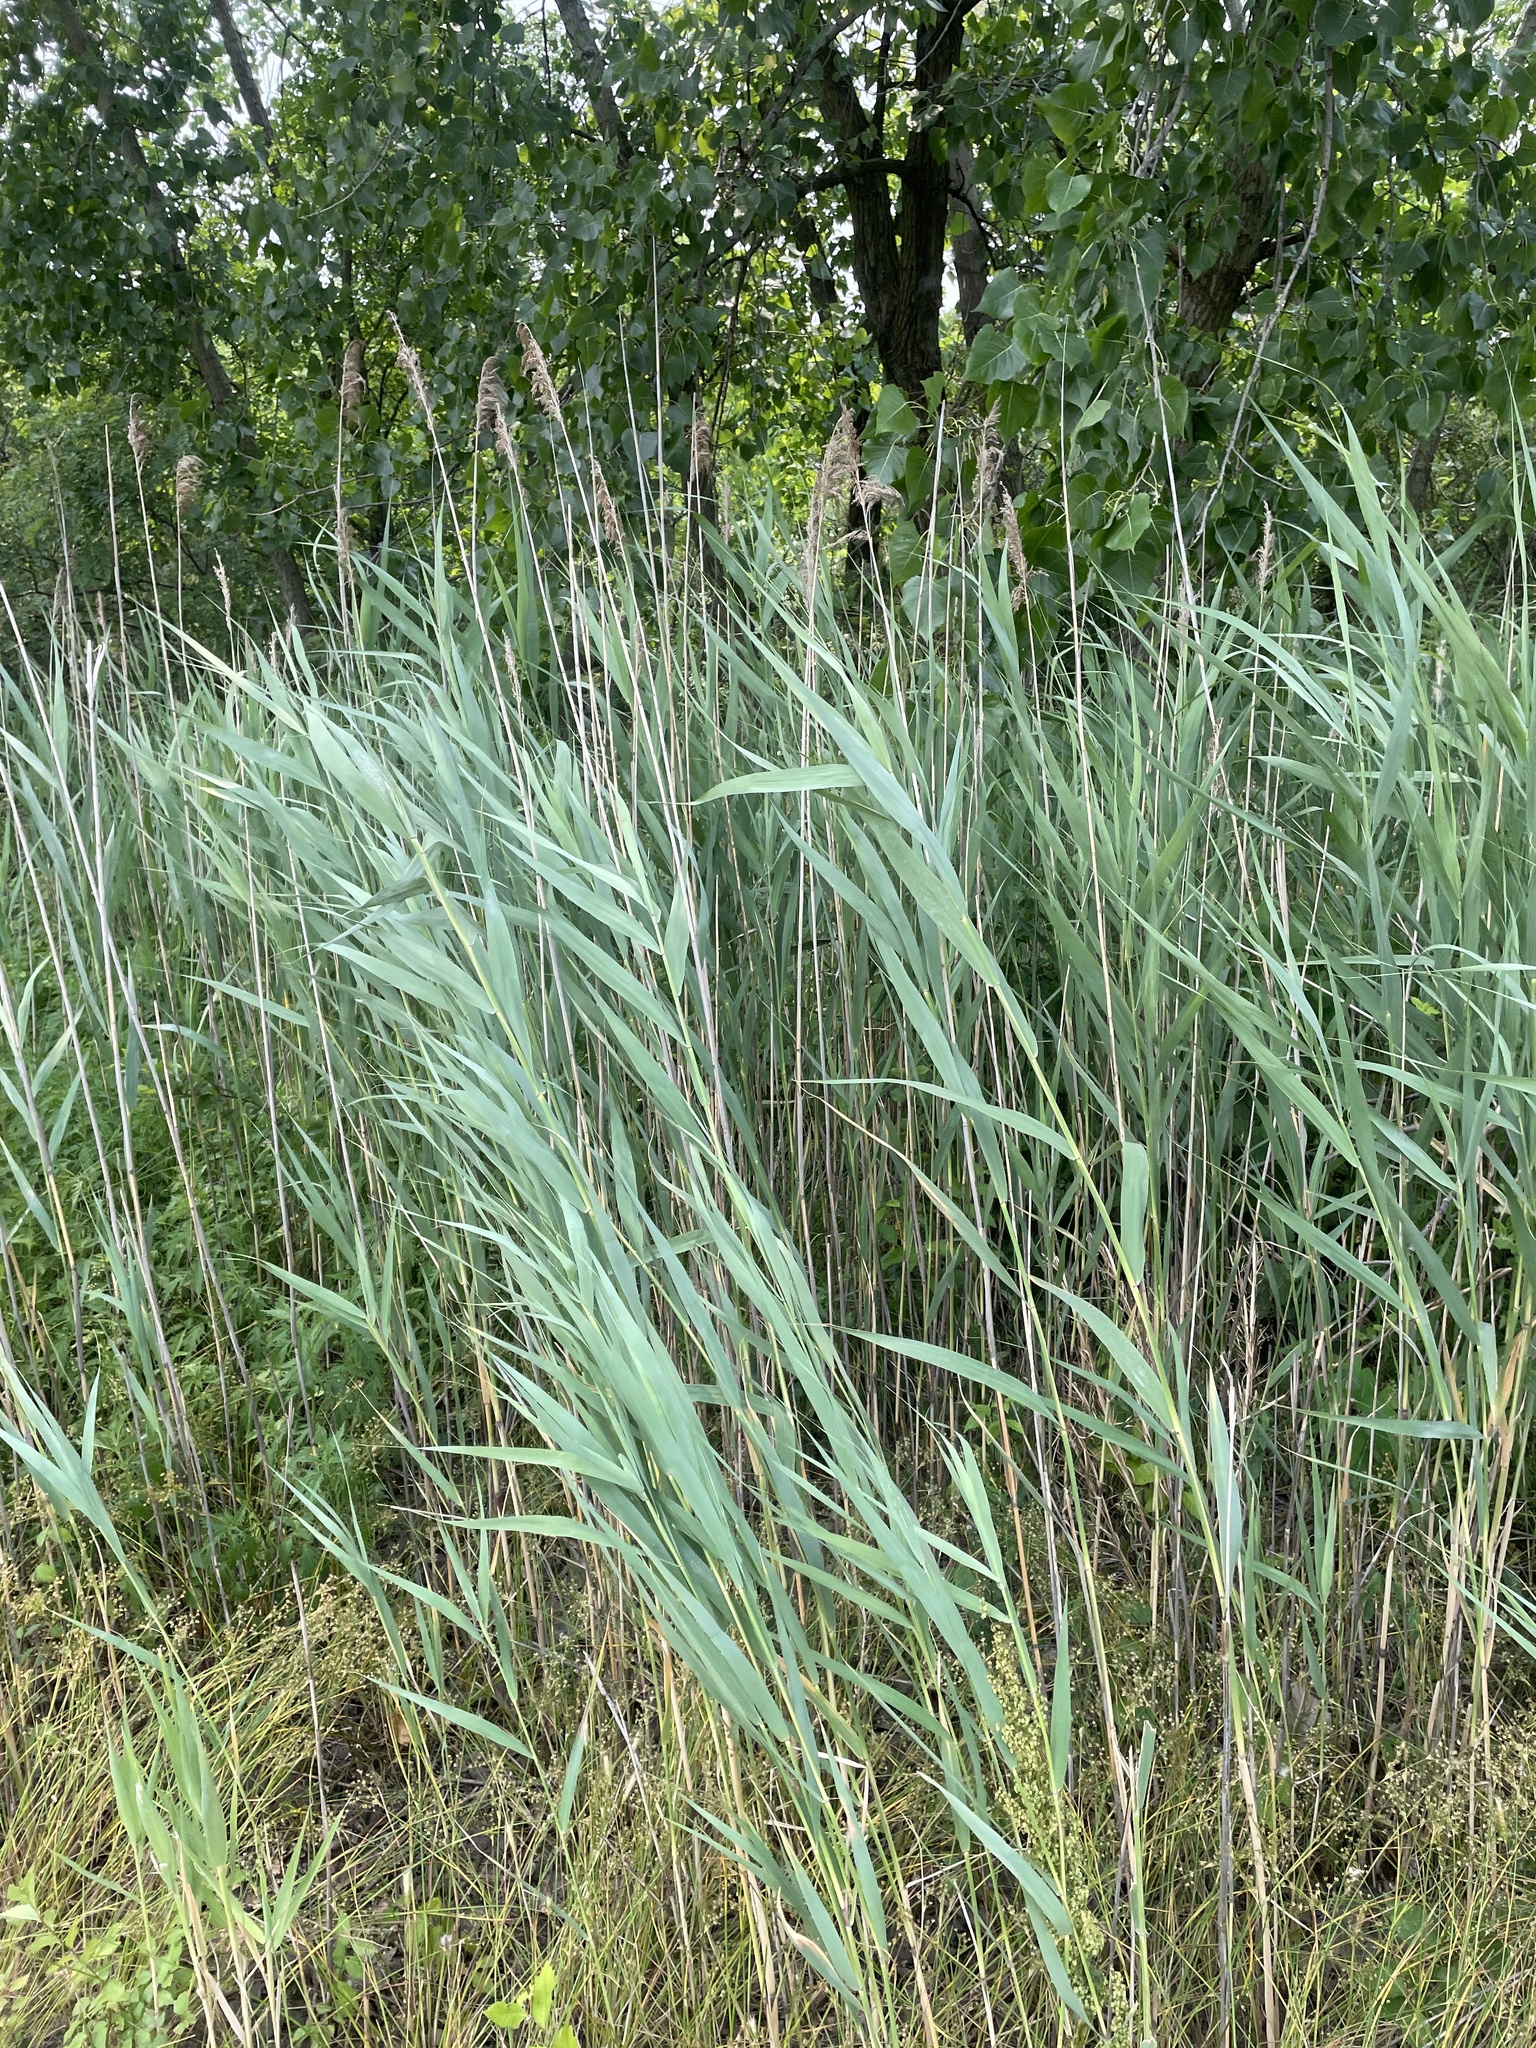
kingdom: Plantae
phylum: Tracheophyta
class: Liliopsida
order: Poales
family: Poaceae
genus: Phragmites
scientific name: Phragmites australis
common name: Common reed
